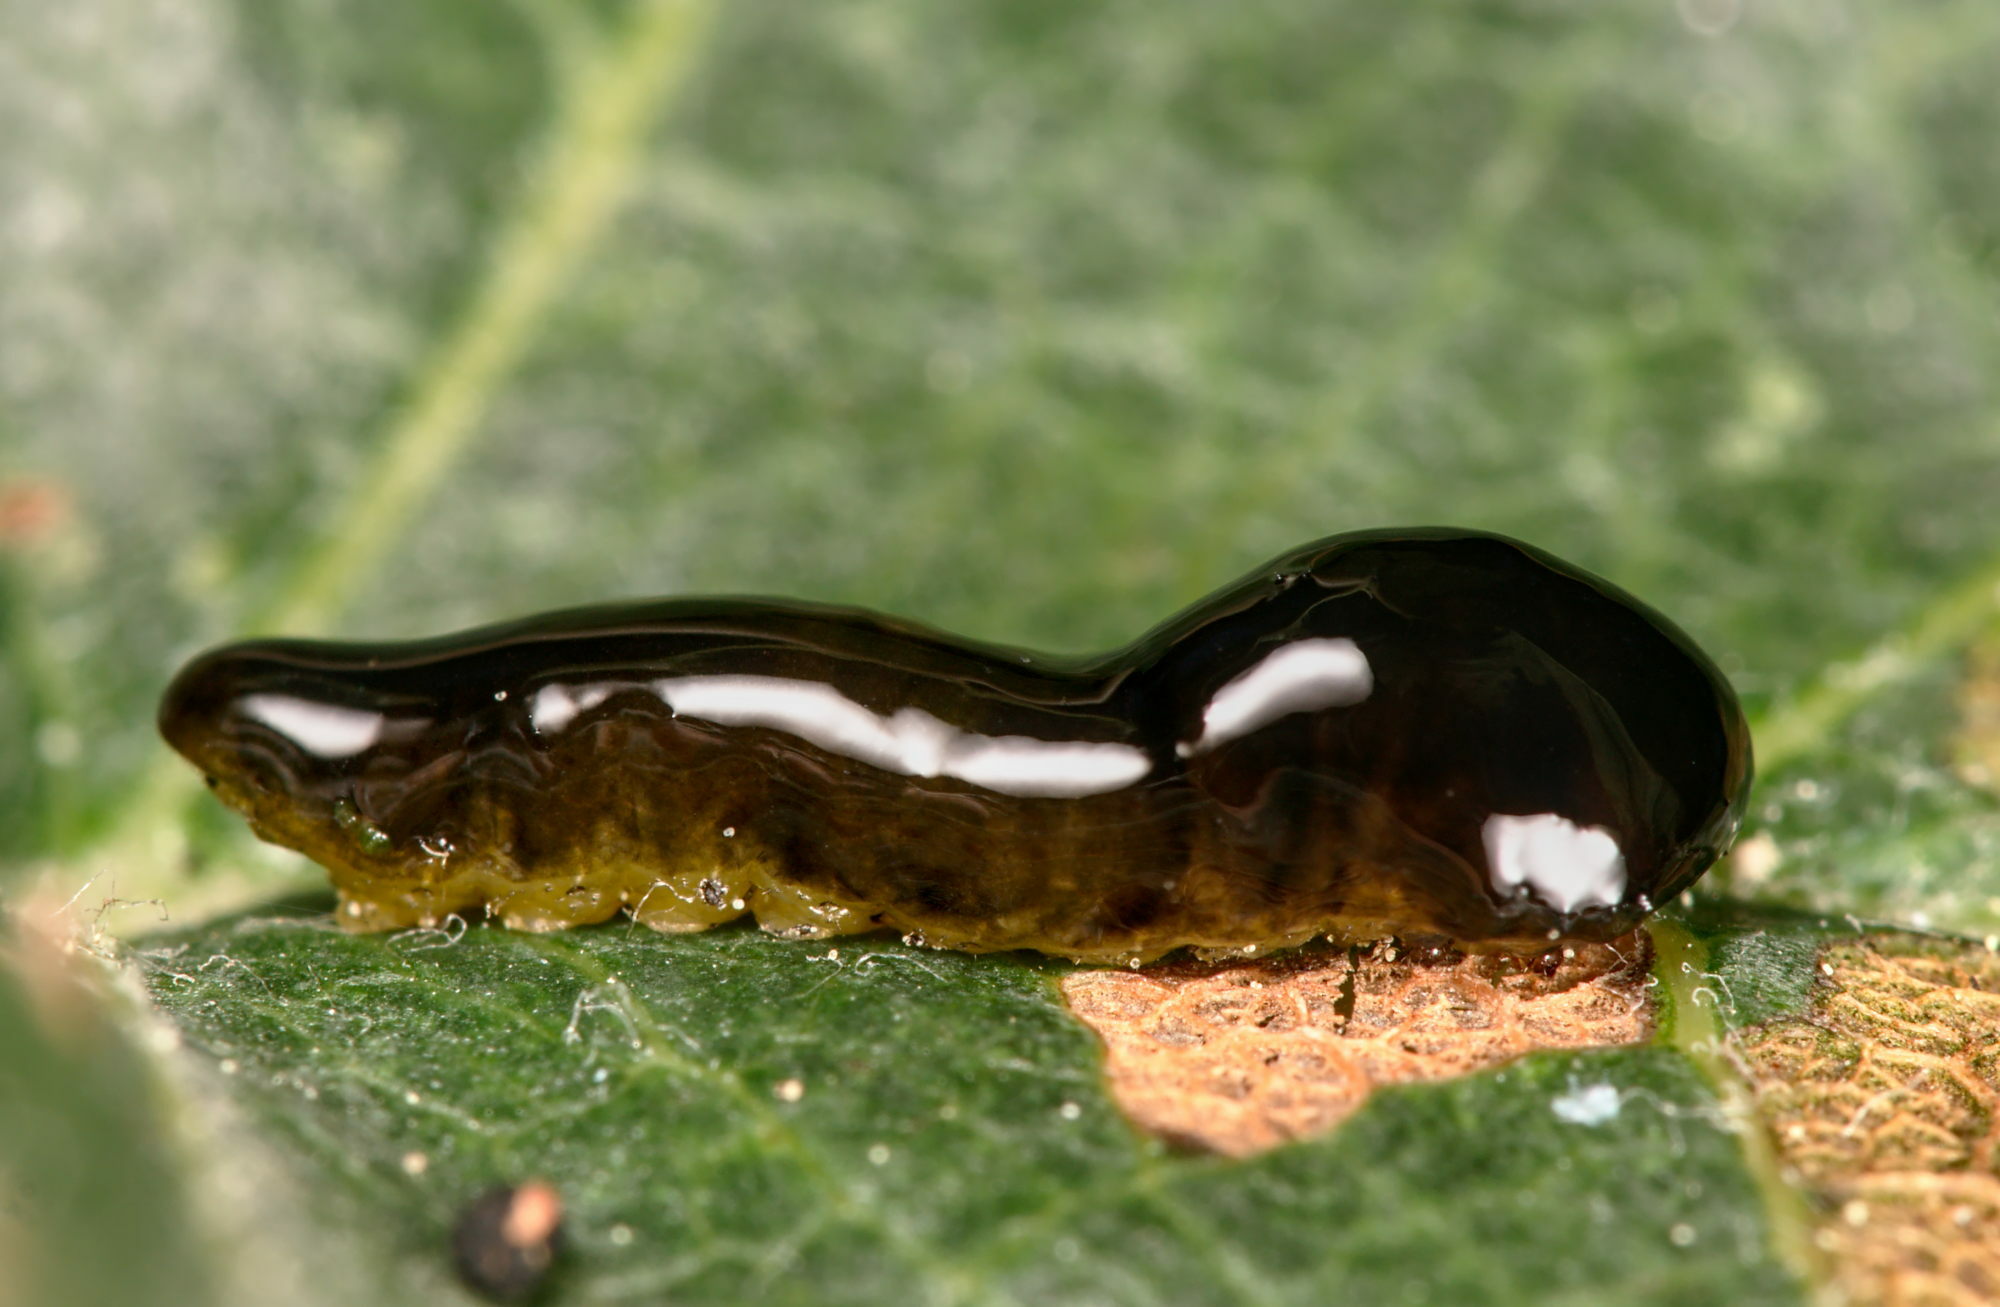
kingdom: Animalia
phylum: Arthropoda
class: Insecta
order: Hymenoptera
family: Tenthredinidae
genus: Caliroa
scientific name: Caliroa cerasi
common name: Pear sawfly
